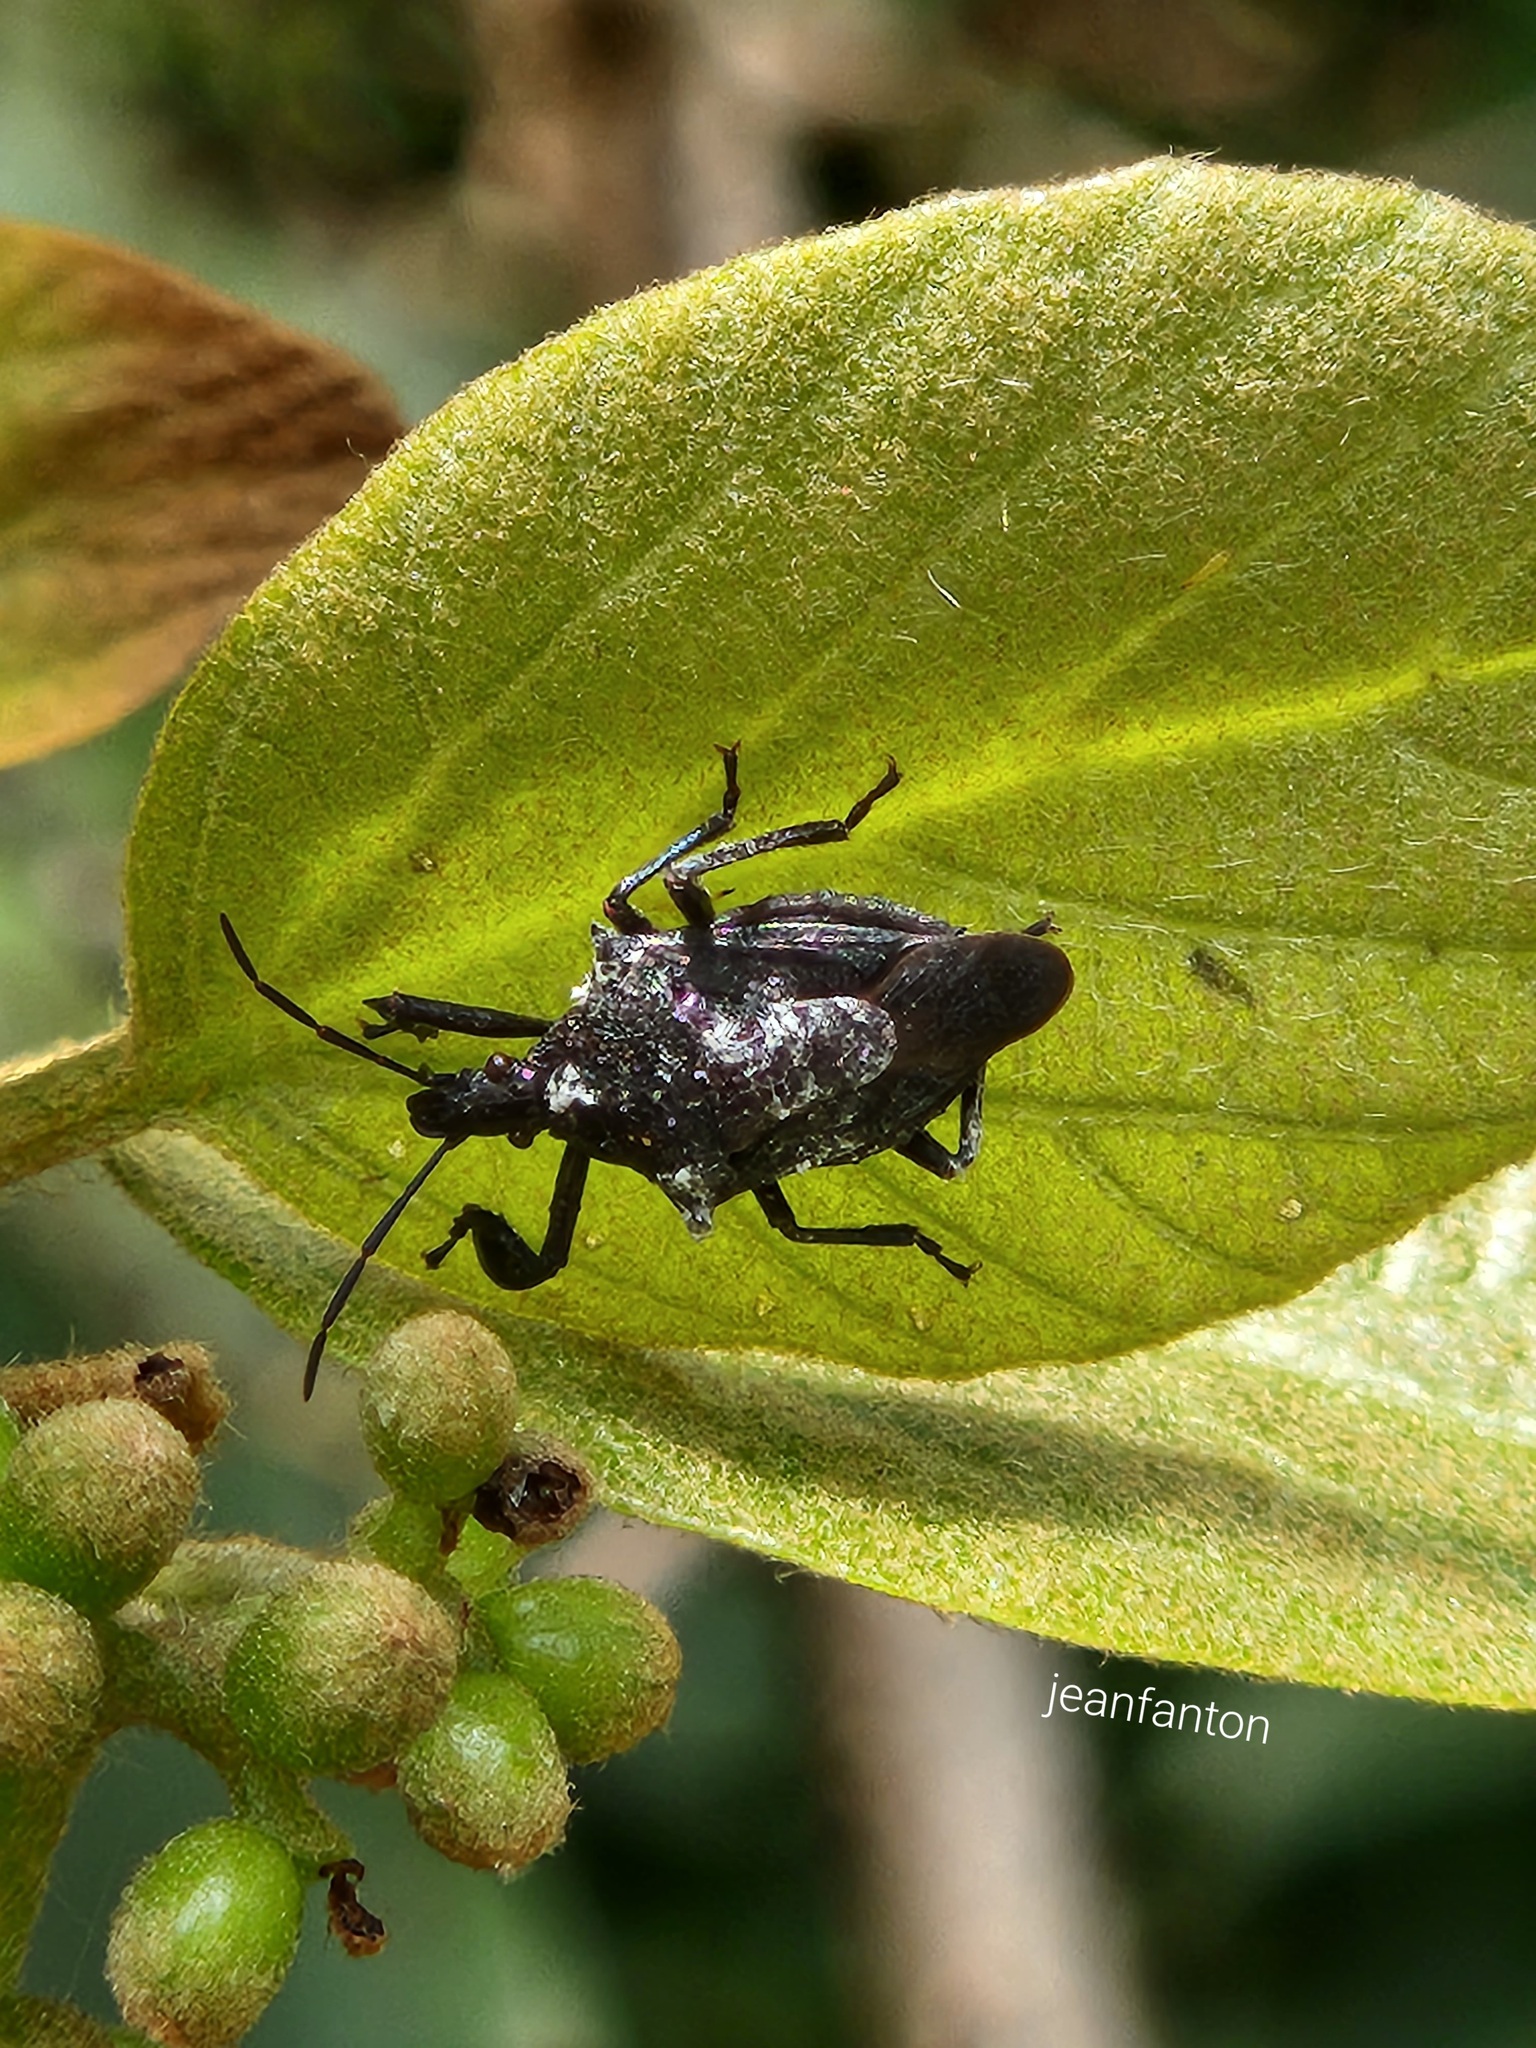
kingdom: Animalia
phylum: Arthropoda
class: Insecta
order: Hemiptera
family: Pentatomidae
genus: Heteroscelis
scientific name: Heteroscelis servillii
